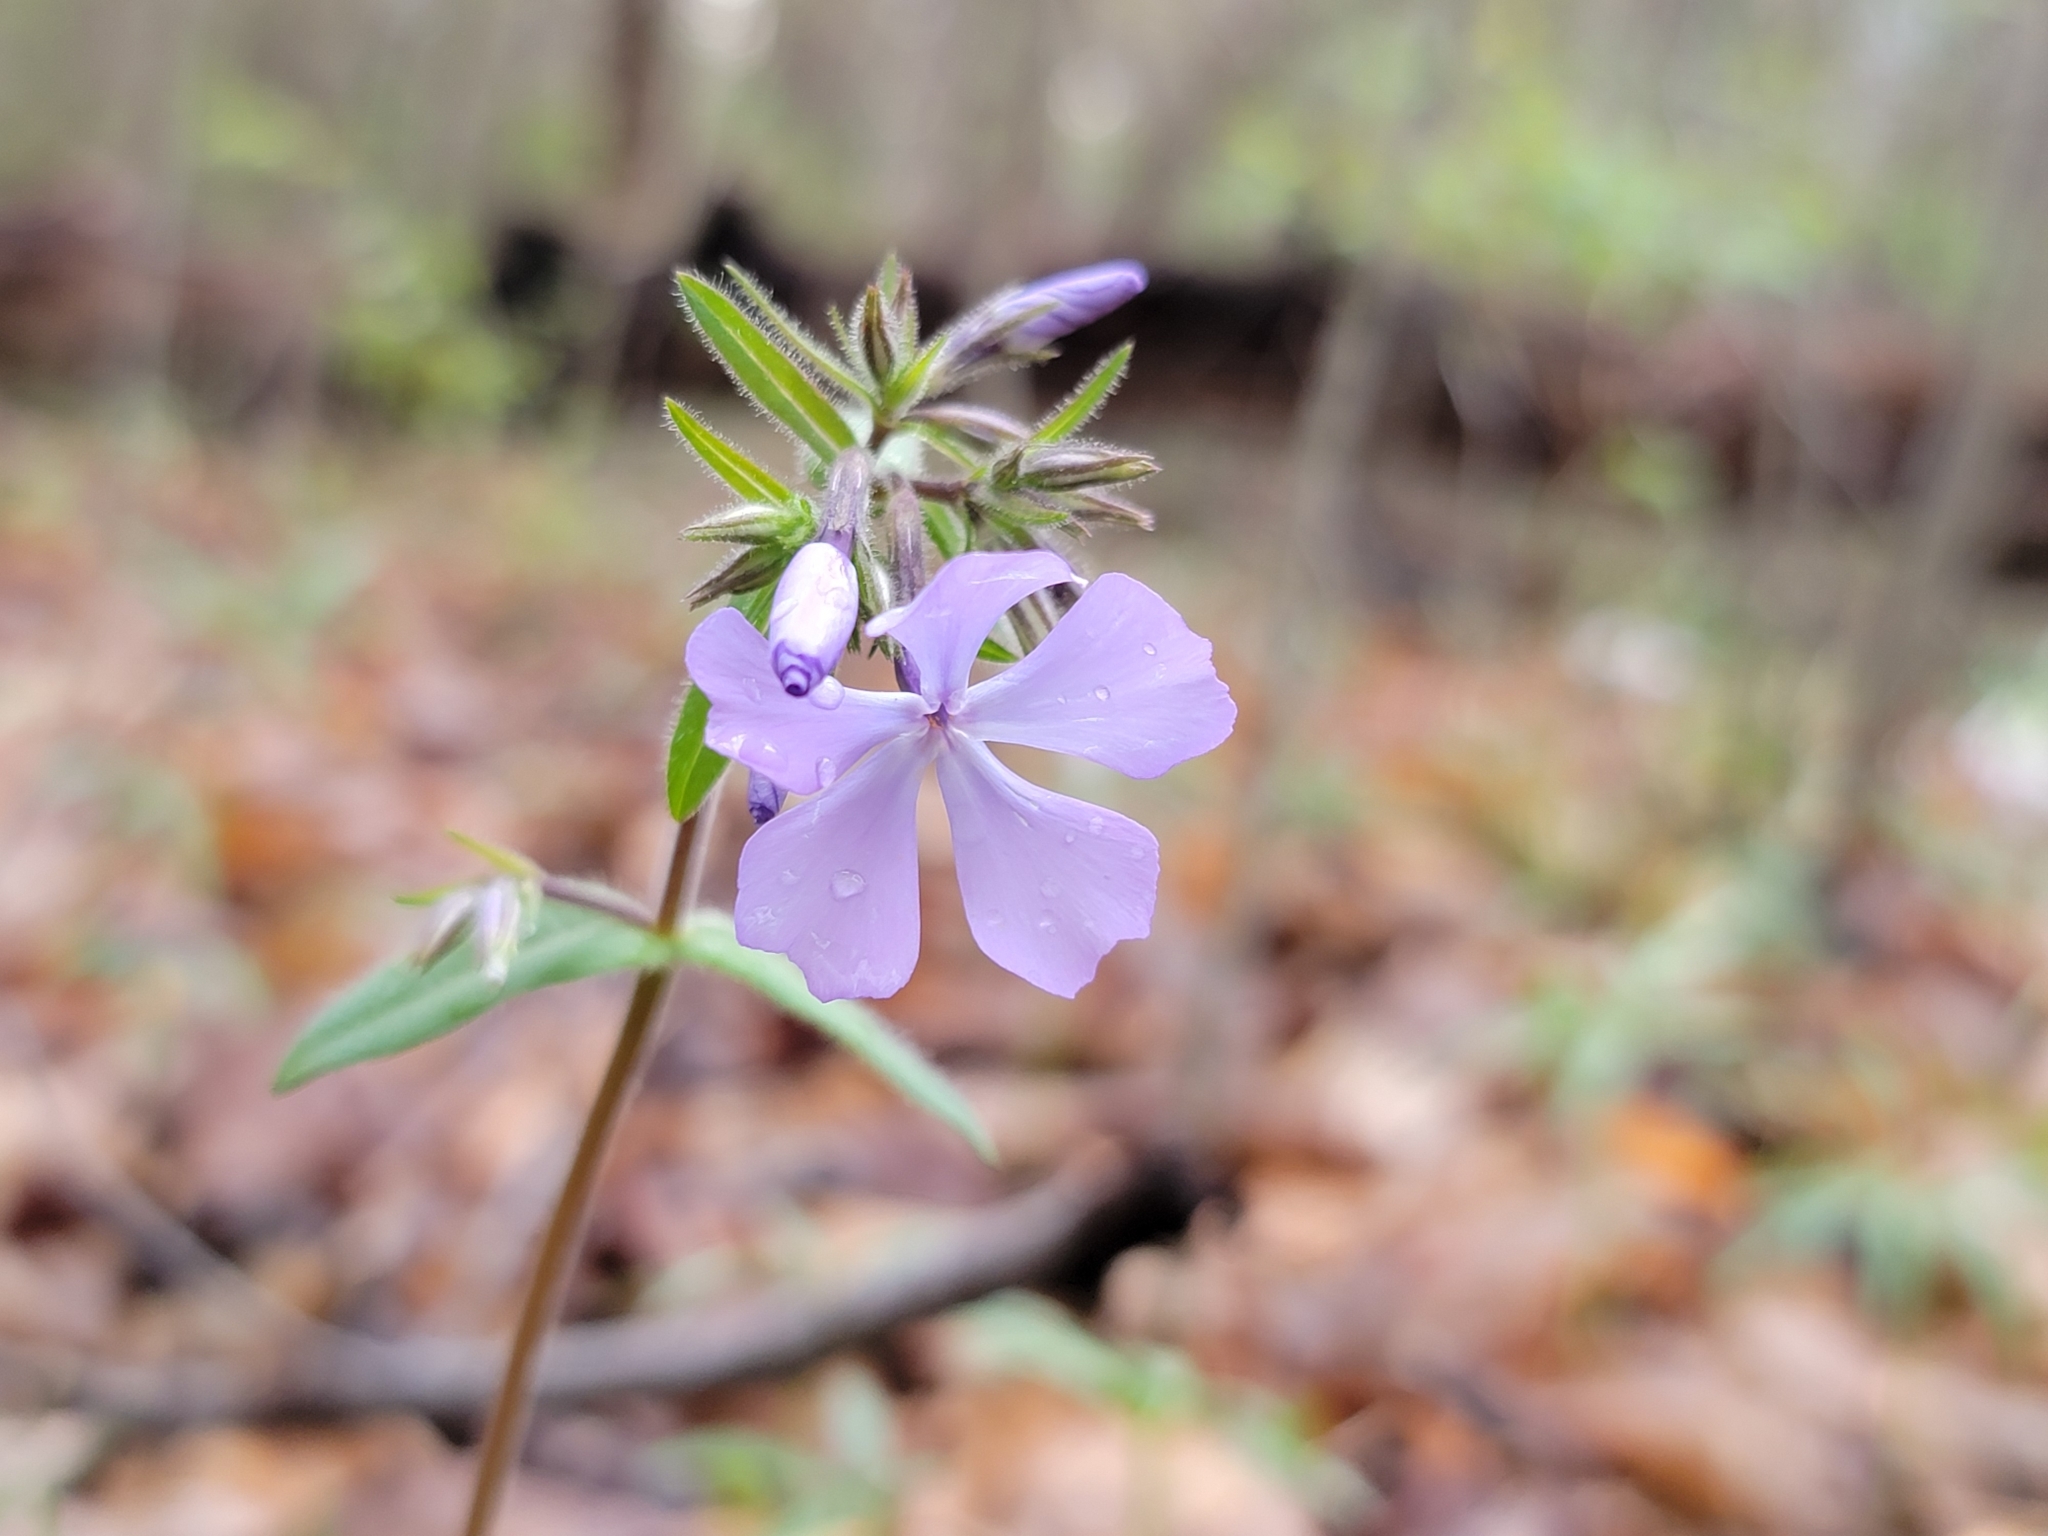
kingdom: Plantae
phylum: Tracheophyta
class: Magnoliopsida
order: Ericales
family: Polemoniaceae
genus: Phlox
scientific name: Phlox divaricata
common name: Blue phlox
